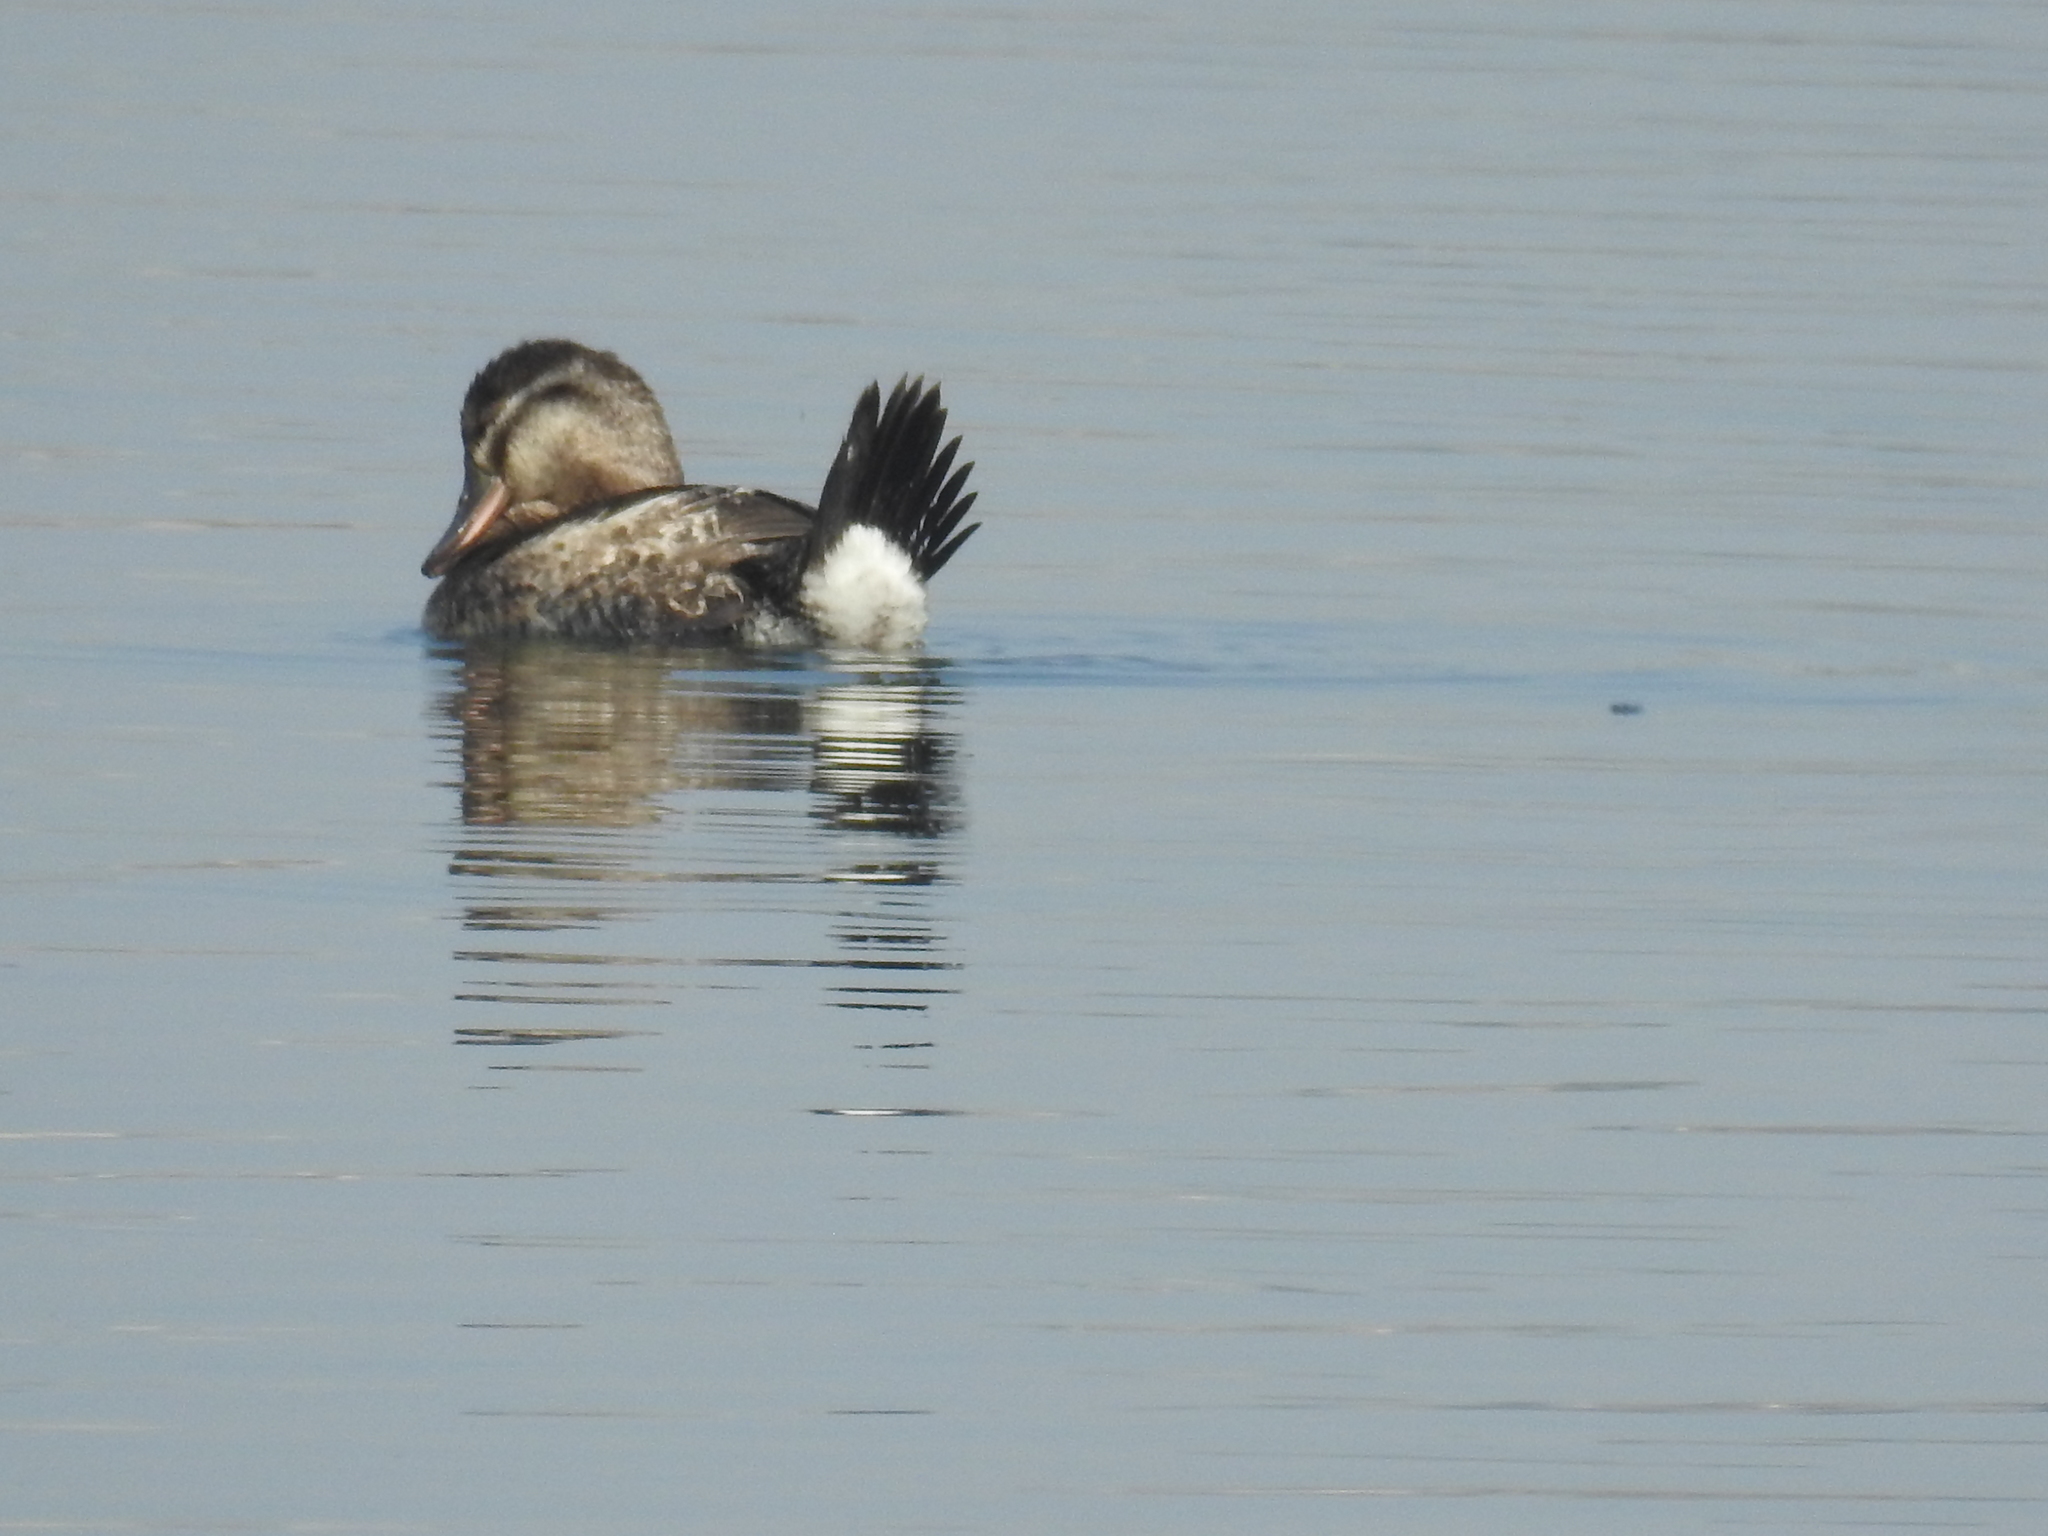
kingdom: Animalia
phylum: Chordata
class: Aves
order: Anseriformes
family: Anatidae
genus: Oxyura
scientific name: Oxyura jamaicensis
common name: Ruddy duck
